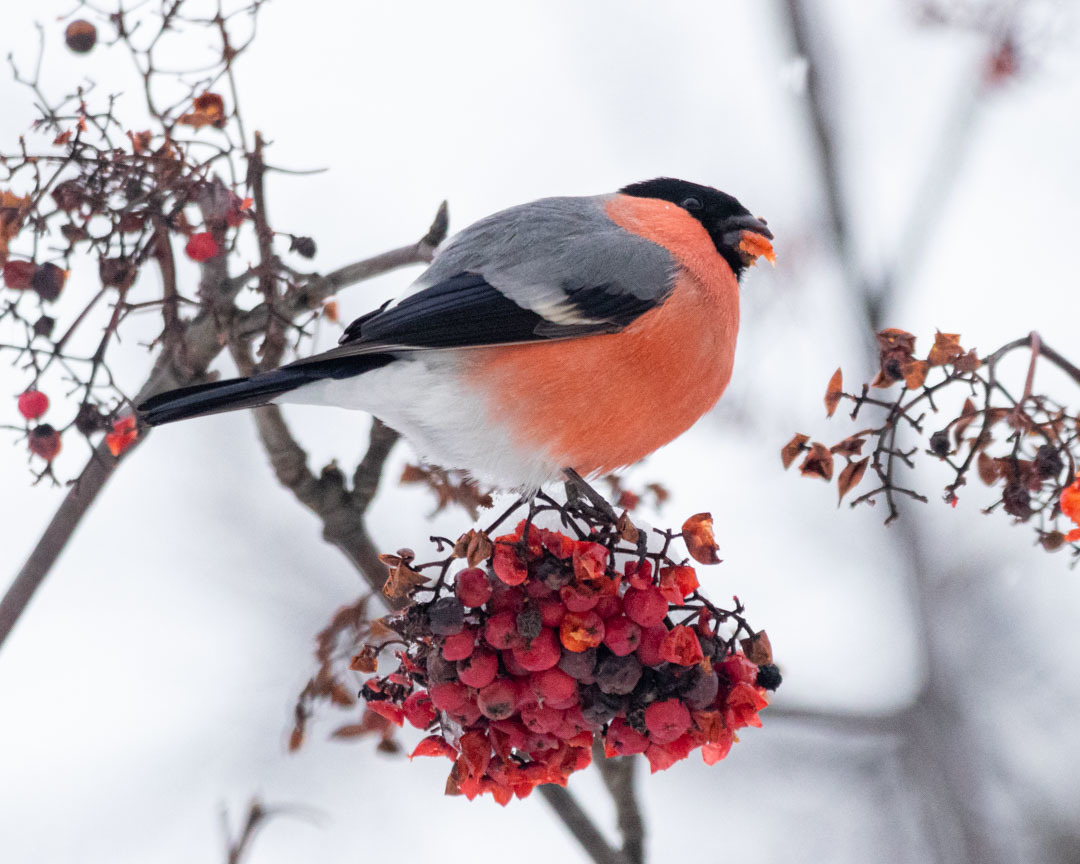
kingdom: Animalia
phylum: Chordata
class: Aves
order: Passeriformes
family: Fringillidae
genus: Pyrrhula
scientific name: Pyrrhula pyrrhula
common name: Eurasian bullfinch
